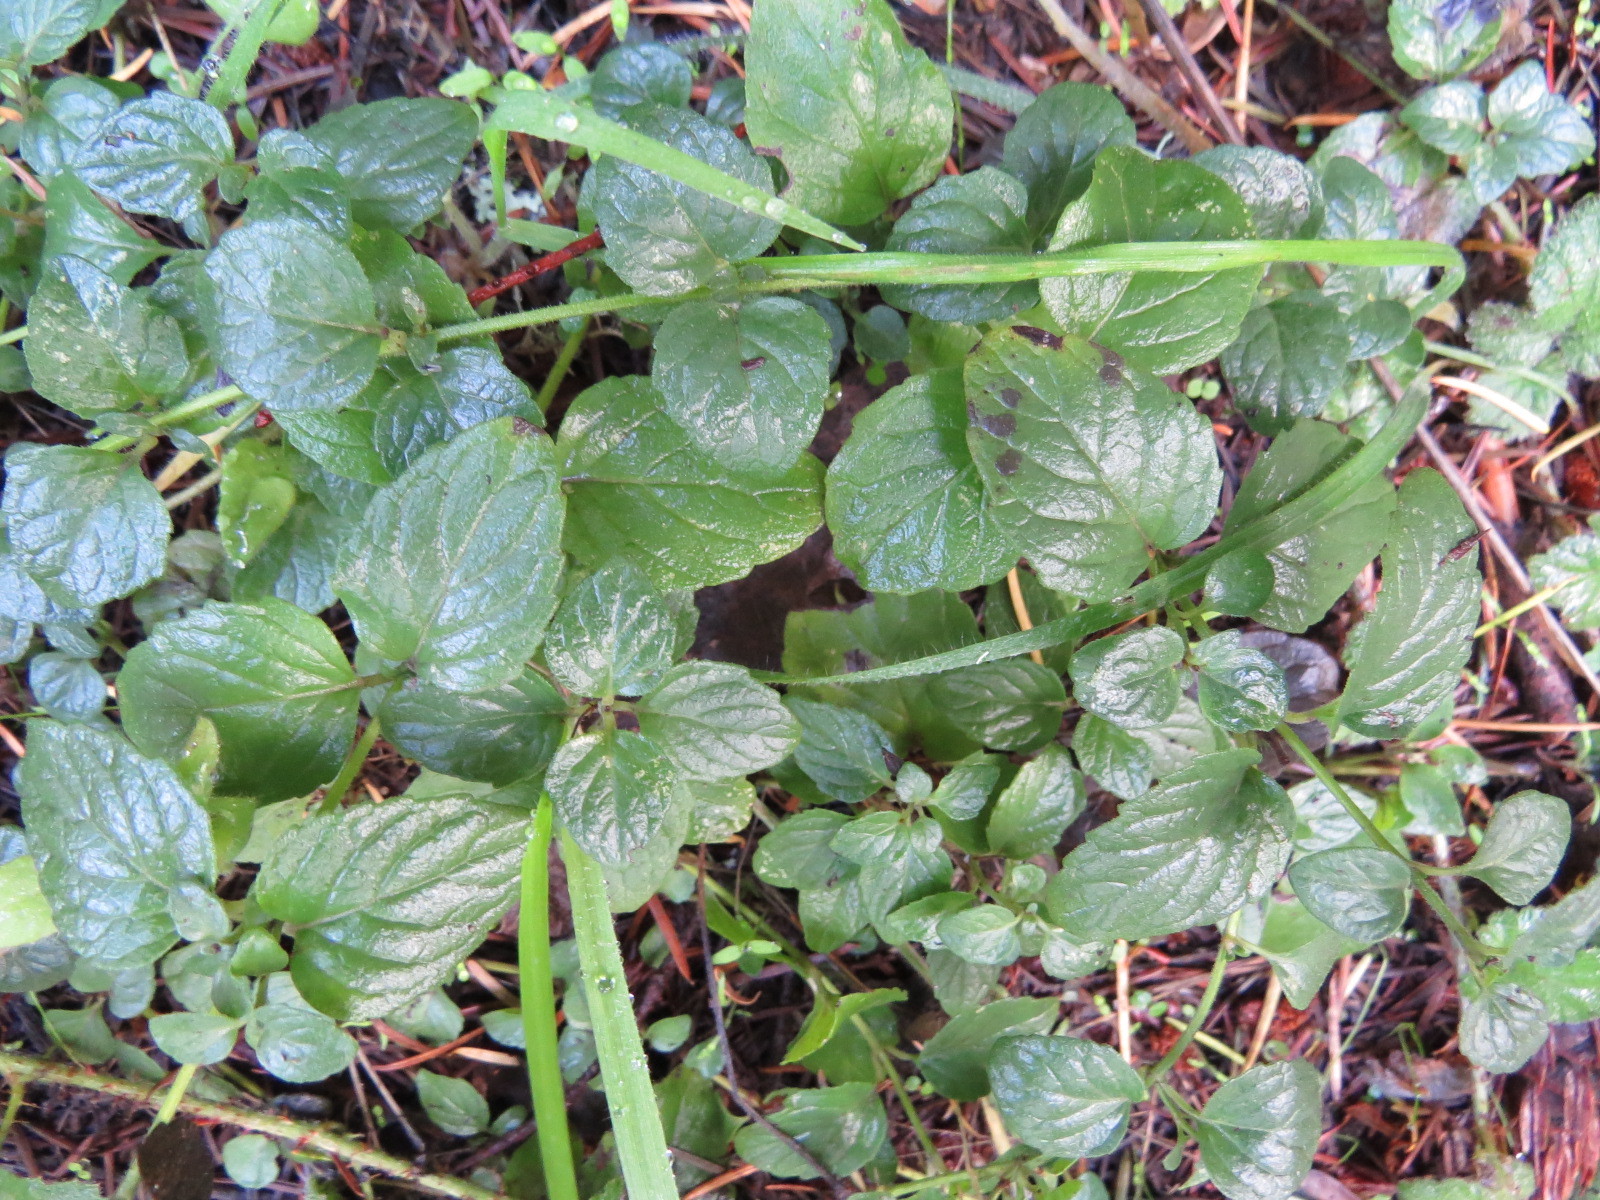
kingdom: Plantae
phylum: Tracheophyta
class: Magnoliopsida
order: Lamiales
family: Lamiaceae
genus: Micromeria
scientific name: Micromeria douglasii
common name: Yerba buena
